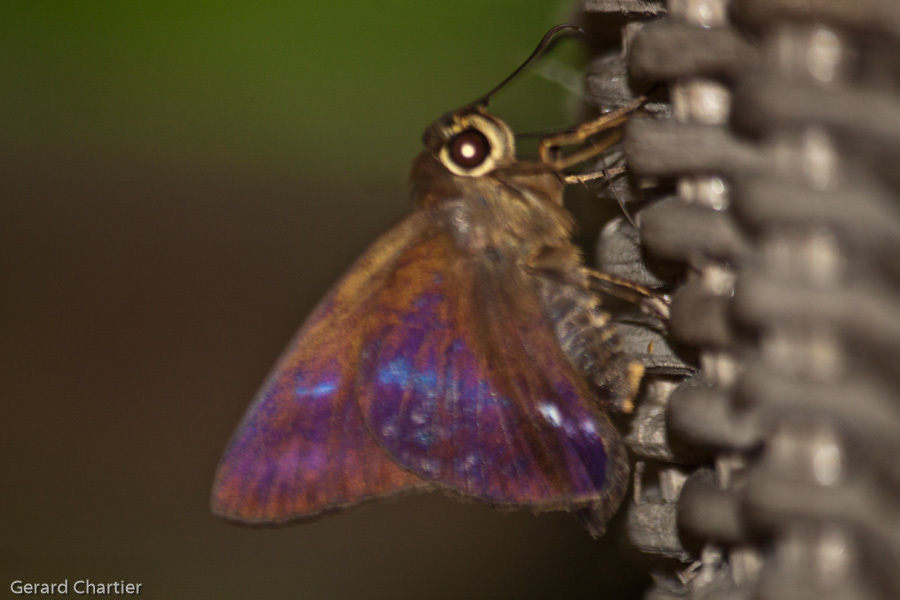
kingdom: Animalia
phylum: Arthropoda
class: Insecta
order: Lepidoptera
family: Hesperiidae
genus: Hasora
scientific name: Hasora leucospila
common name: Violet awl
